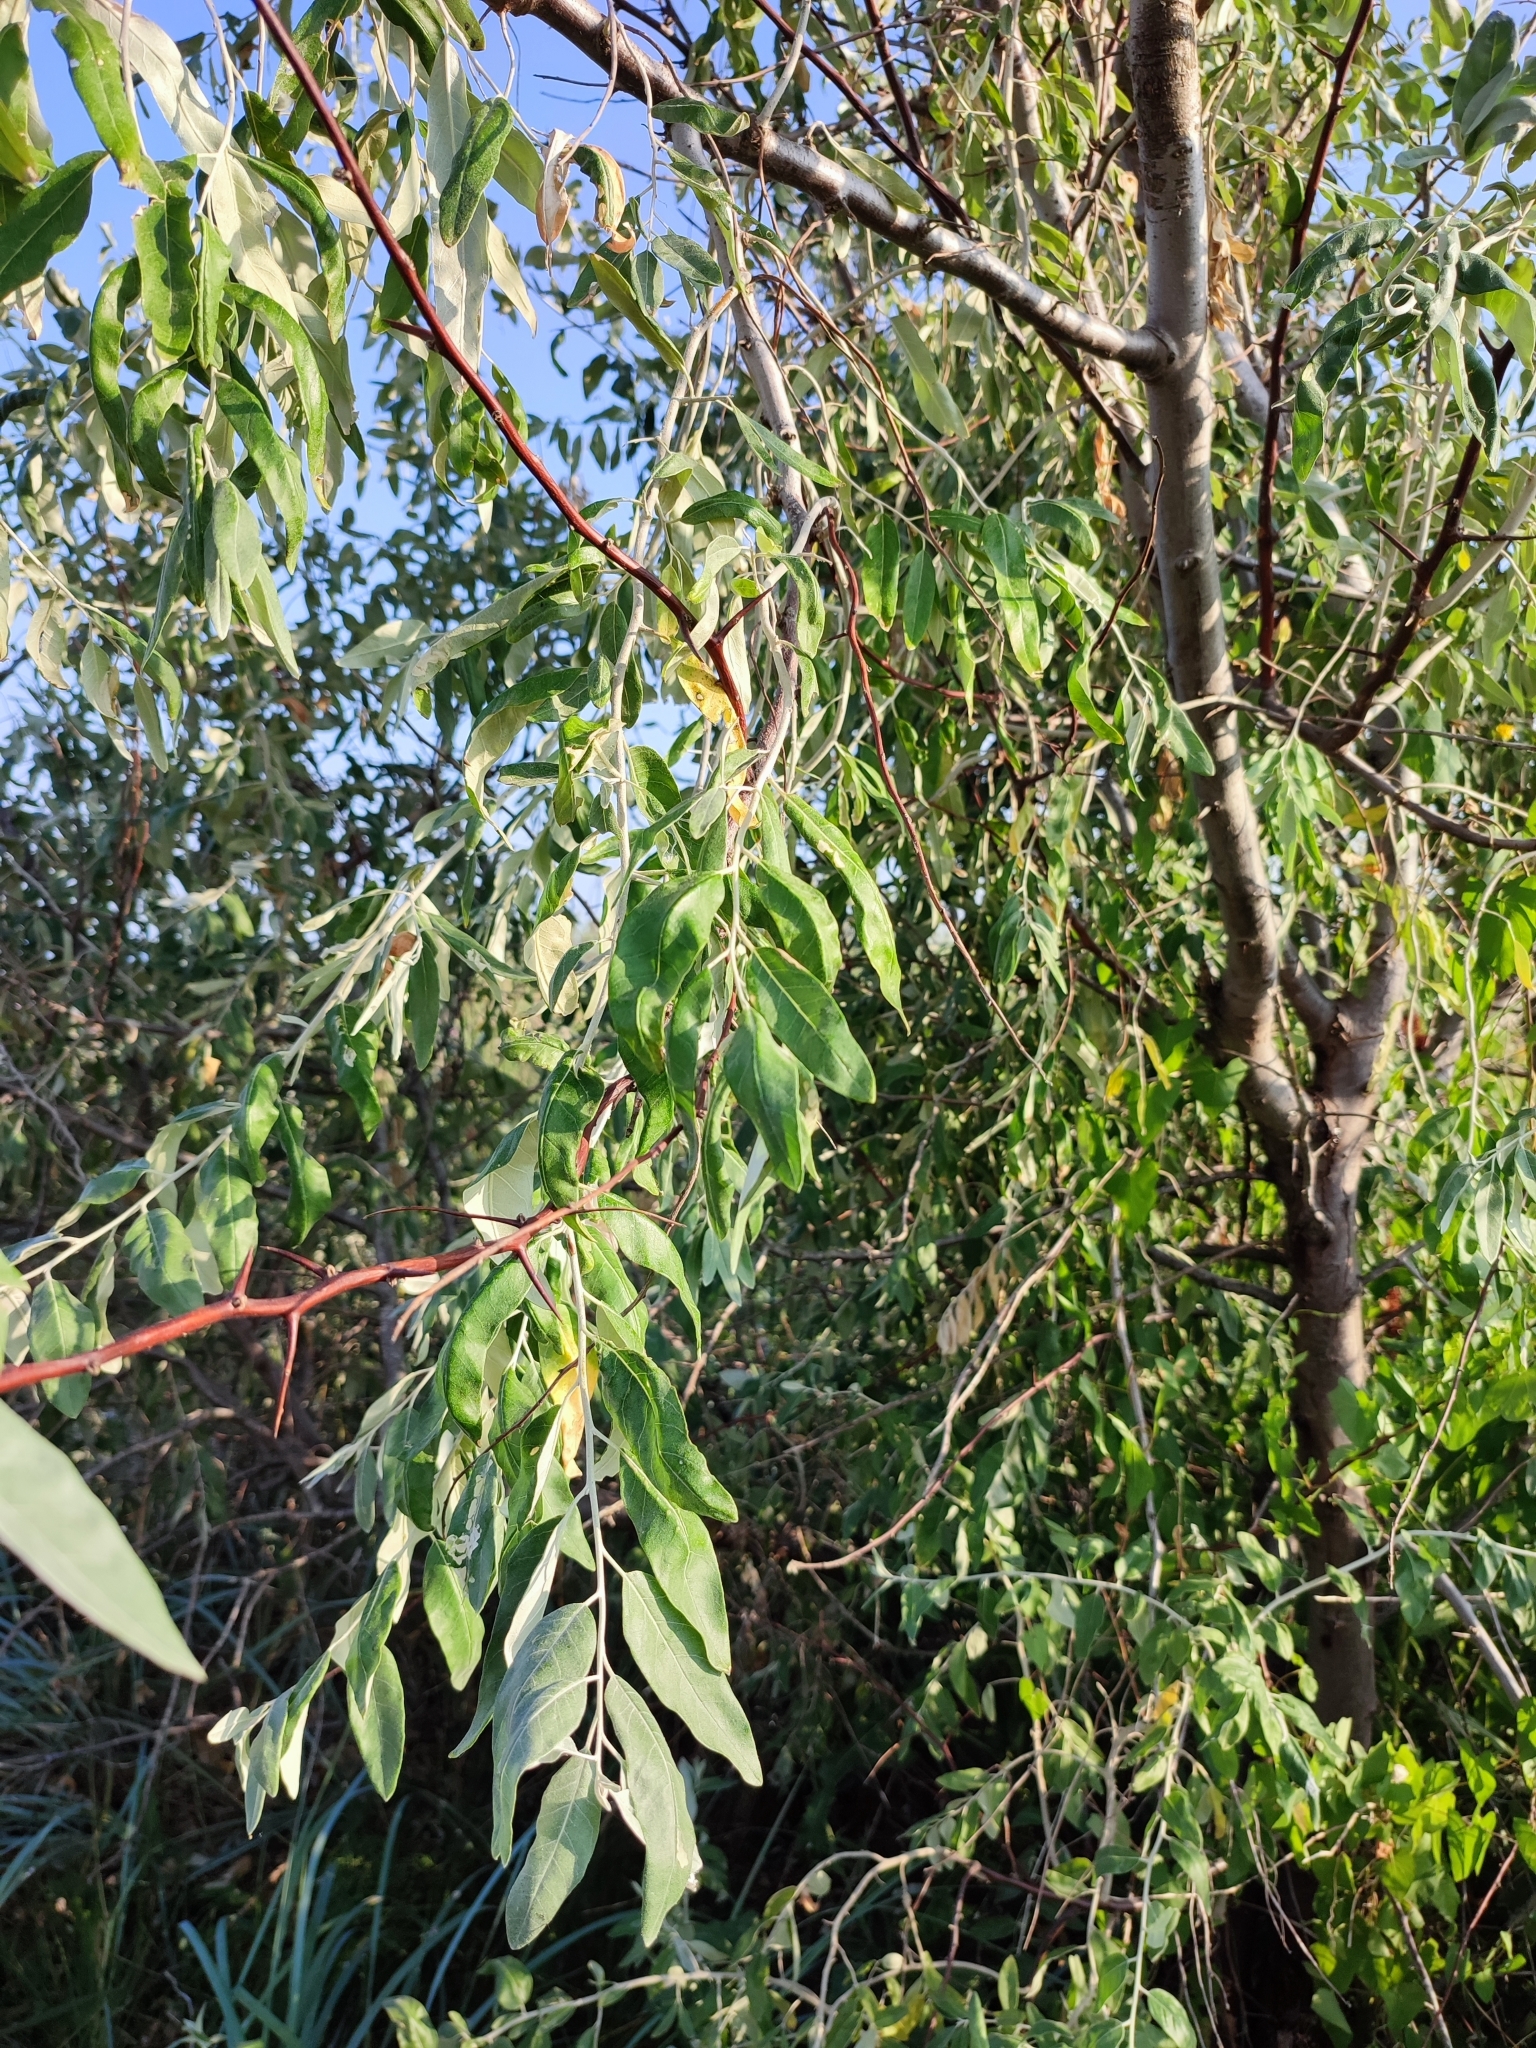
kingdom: Plantae
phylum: Tracheophyta
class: Magnoliopsida
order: Rosales
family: Elaeagnaceae
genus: Elaeagnus
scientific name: Elaeagnus angustifolia
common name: Russian olive
